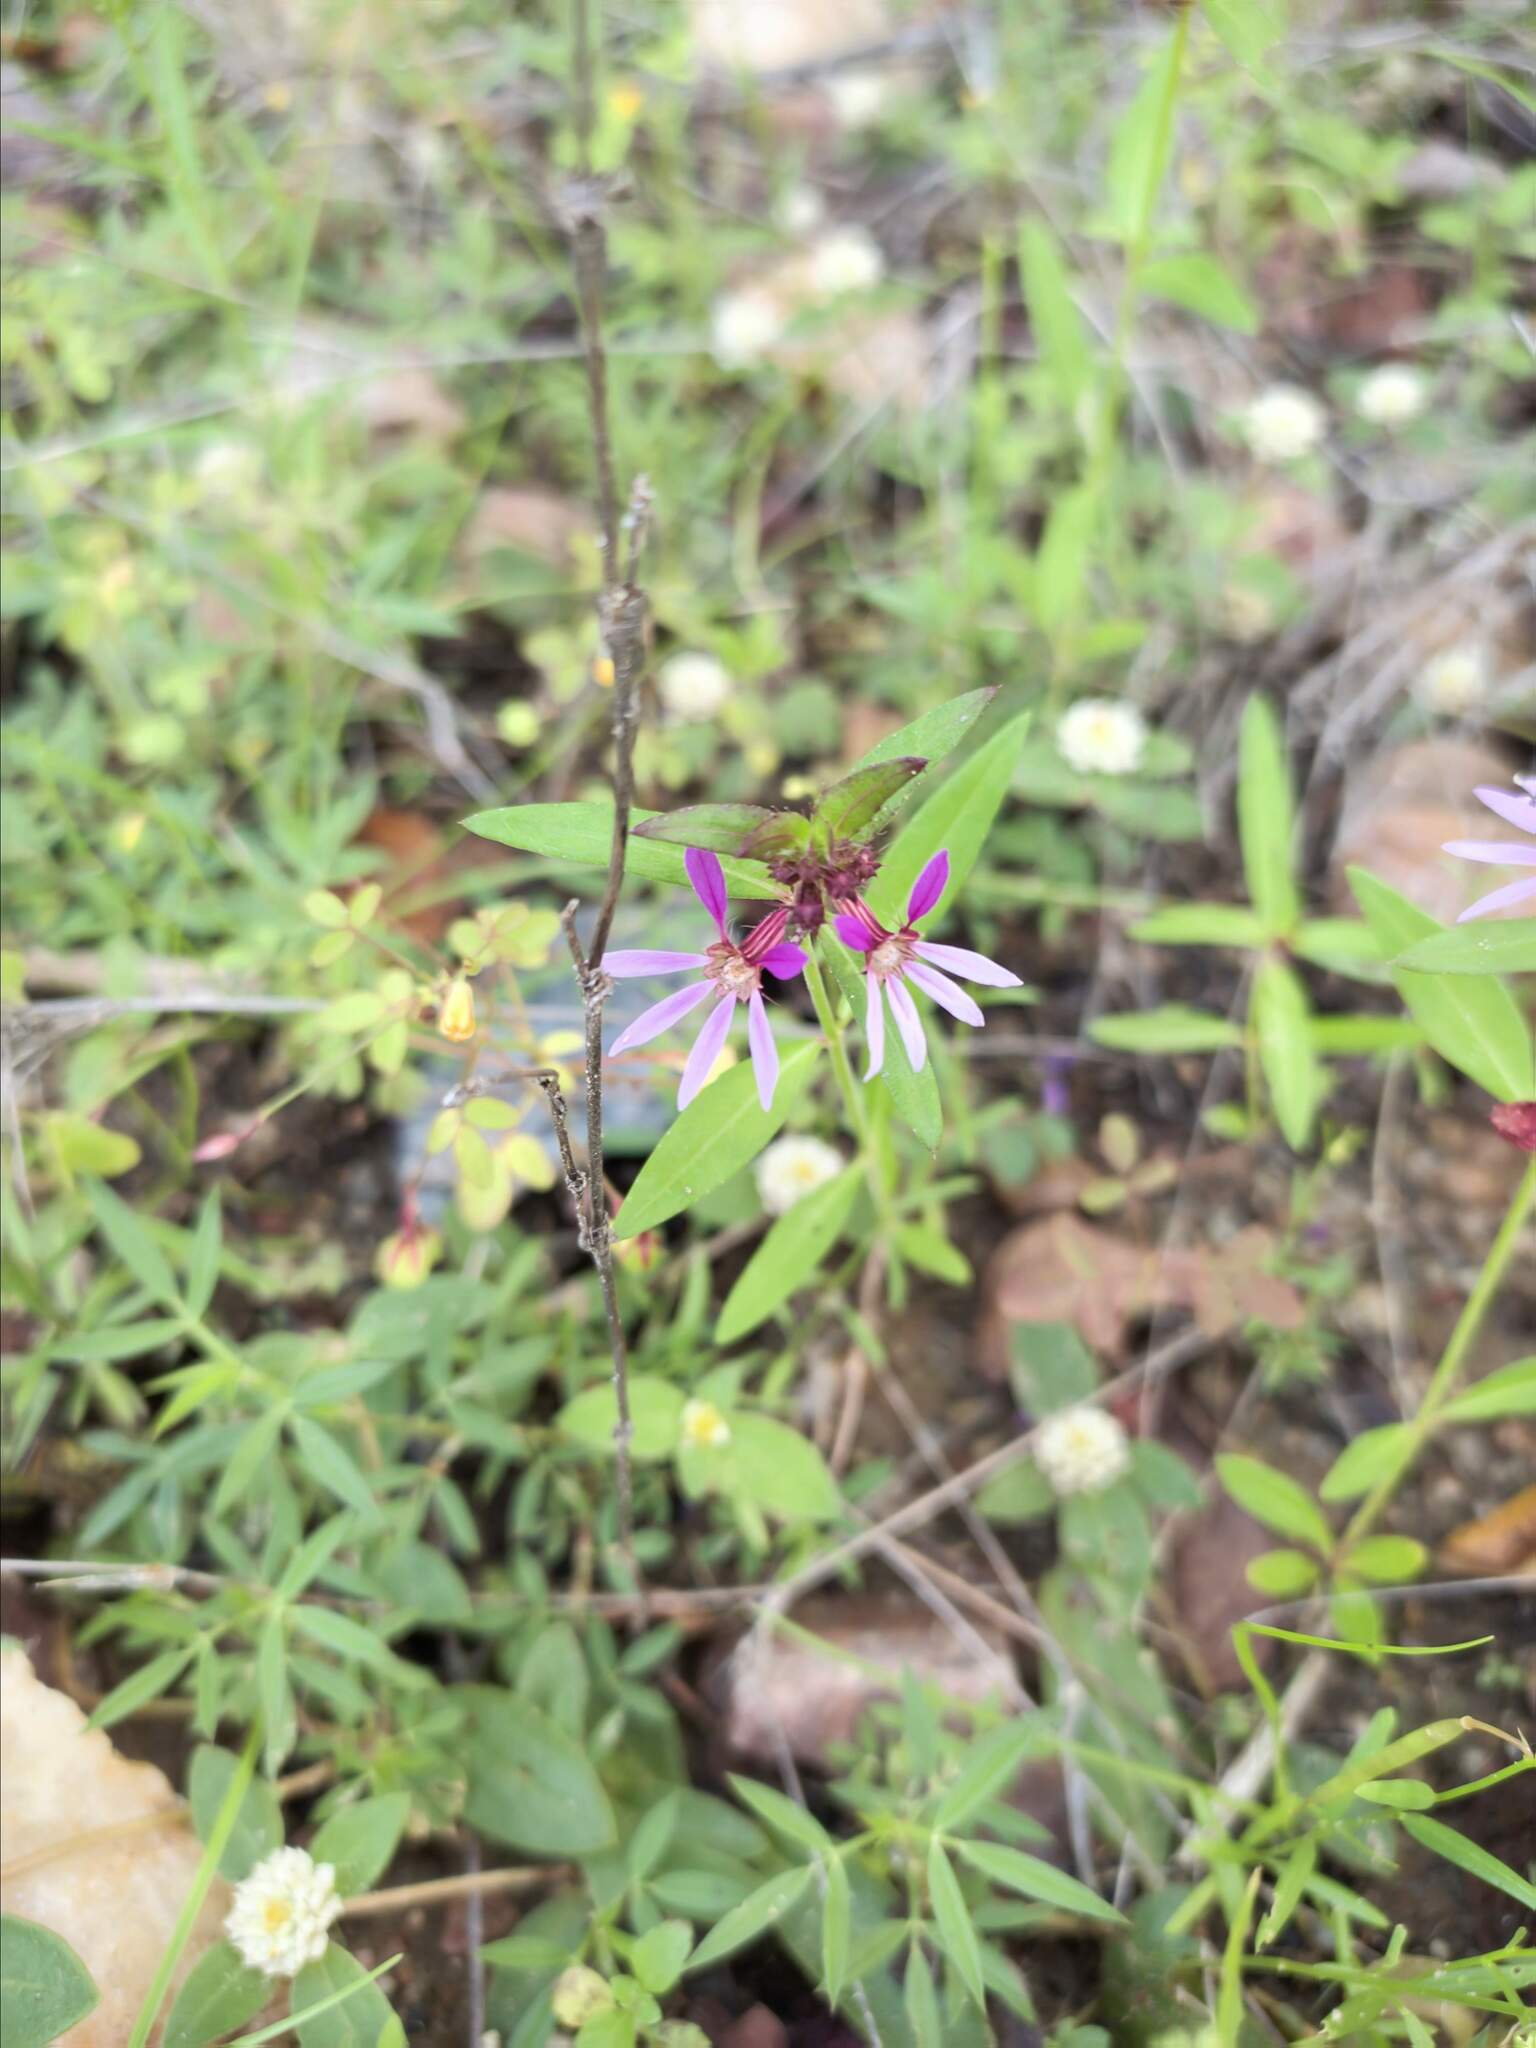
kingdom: Plantae
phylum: Tracheophyta
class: Magnoliopsida
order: Myrtales
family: Lythraceae
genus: Cuphea
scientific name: Cuphea campestris
